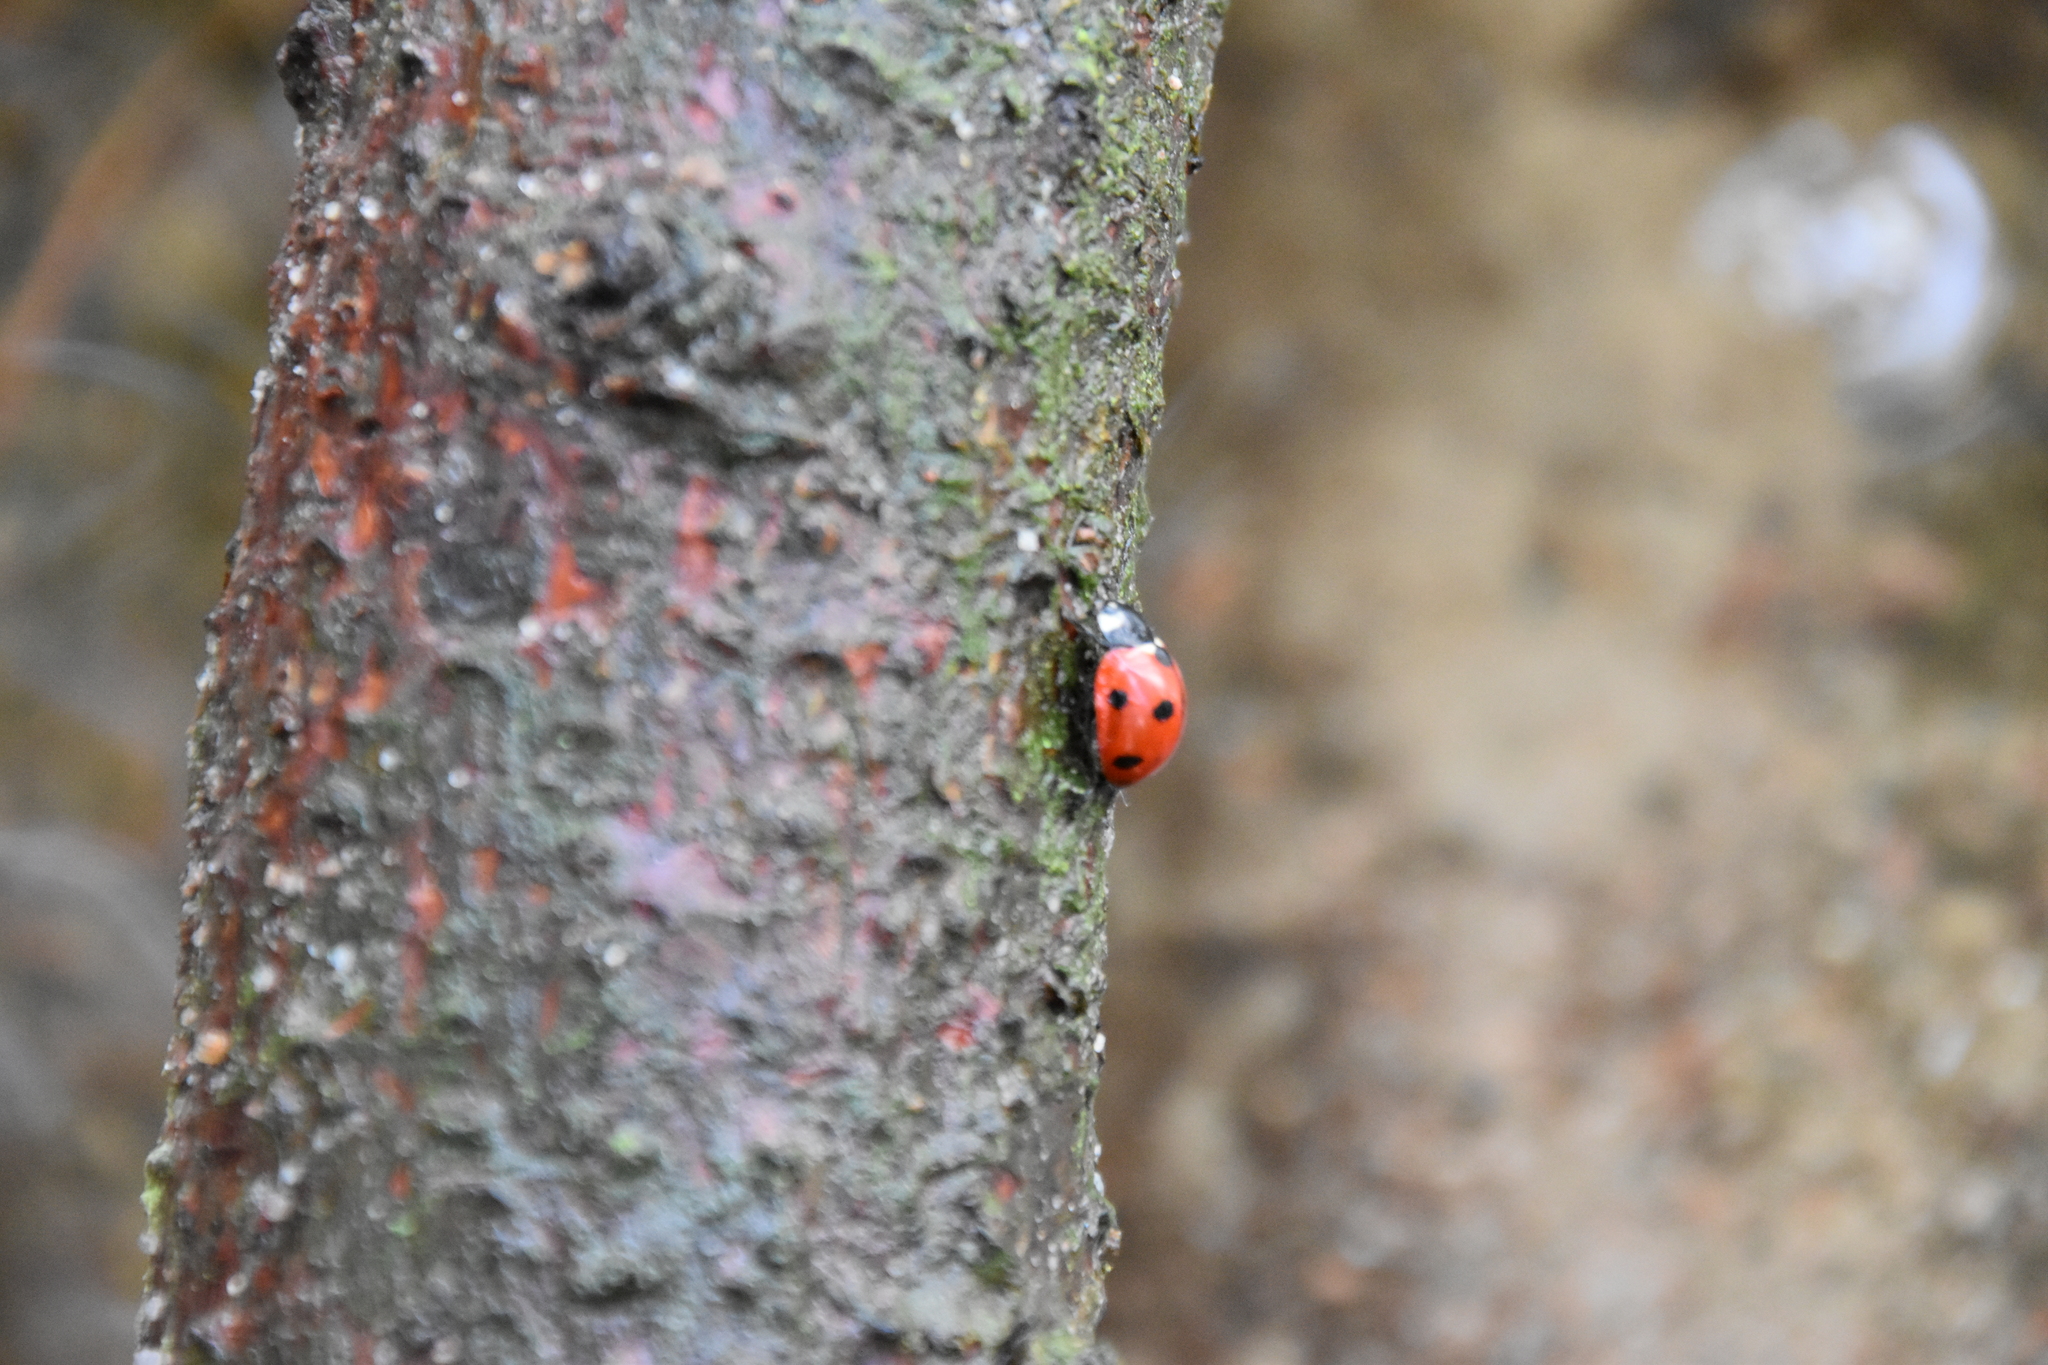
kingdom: Animalia
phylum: Arthropoda
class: Insecta
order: Coleoptera
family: Coccinellidae
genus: Coccinella
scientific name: Coccinella septempunctata
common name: Sevenspotted lady beetle
